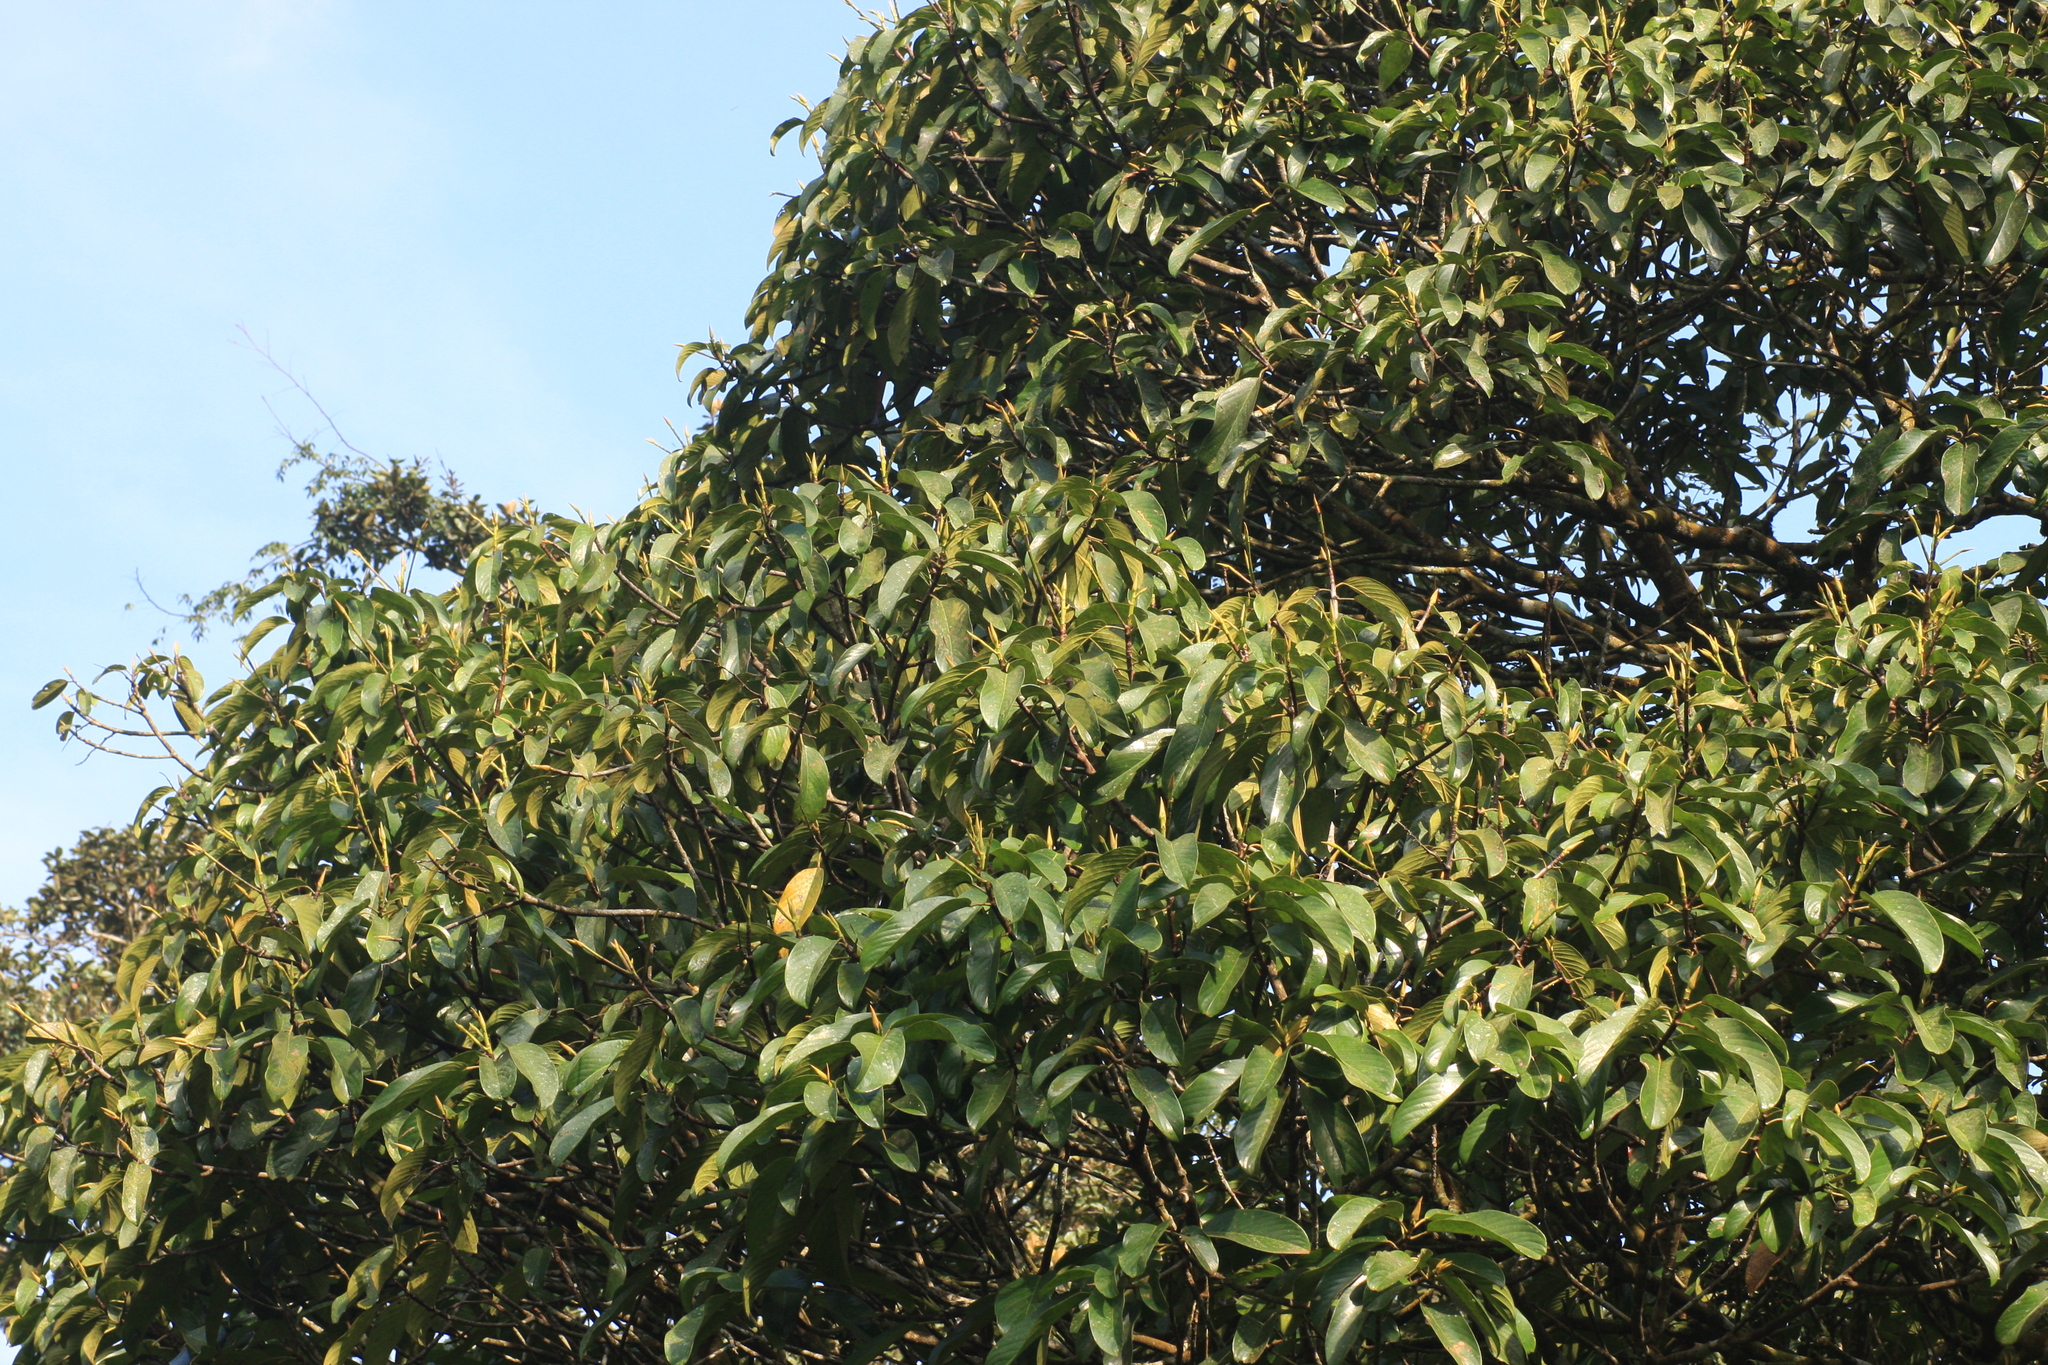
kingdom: Plantae
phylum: Tracheophyta
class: Magnoliopsida
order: Malpighiales
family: Centroplacaceae
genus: Bhesa
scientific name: Bhesa indica
